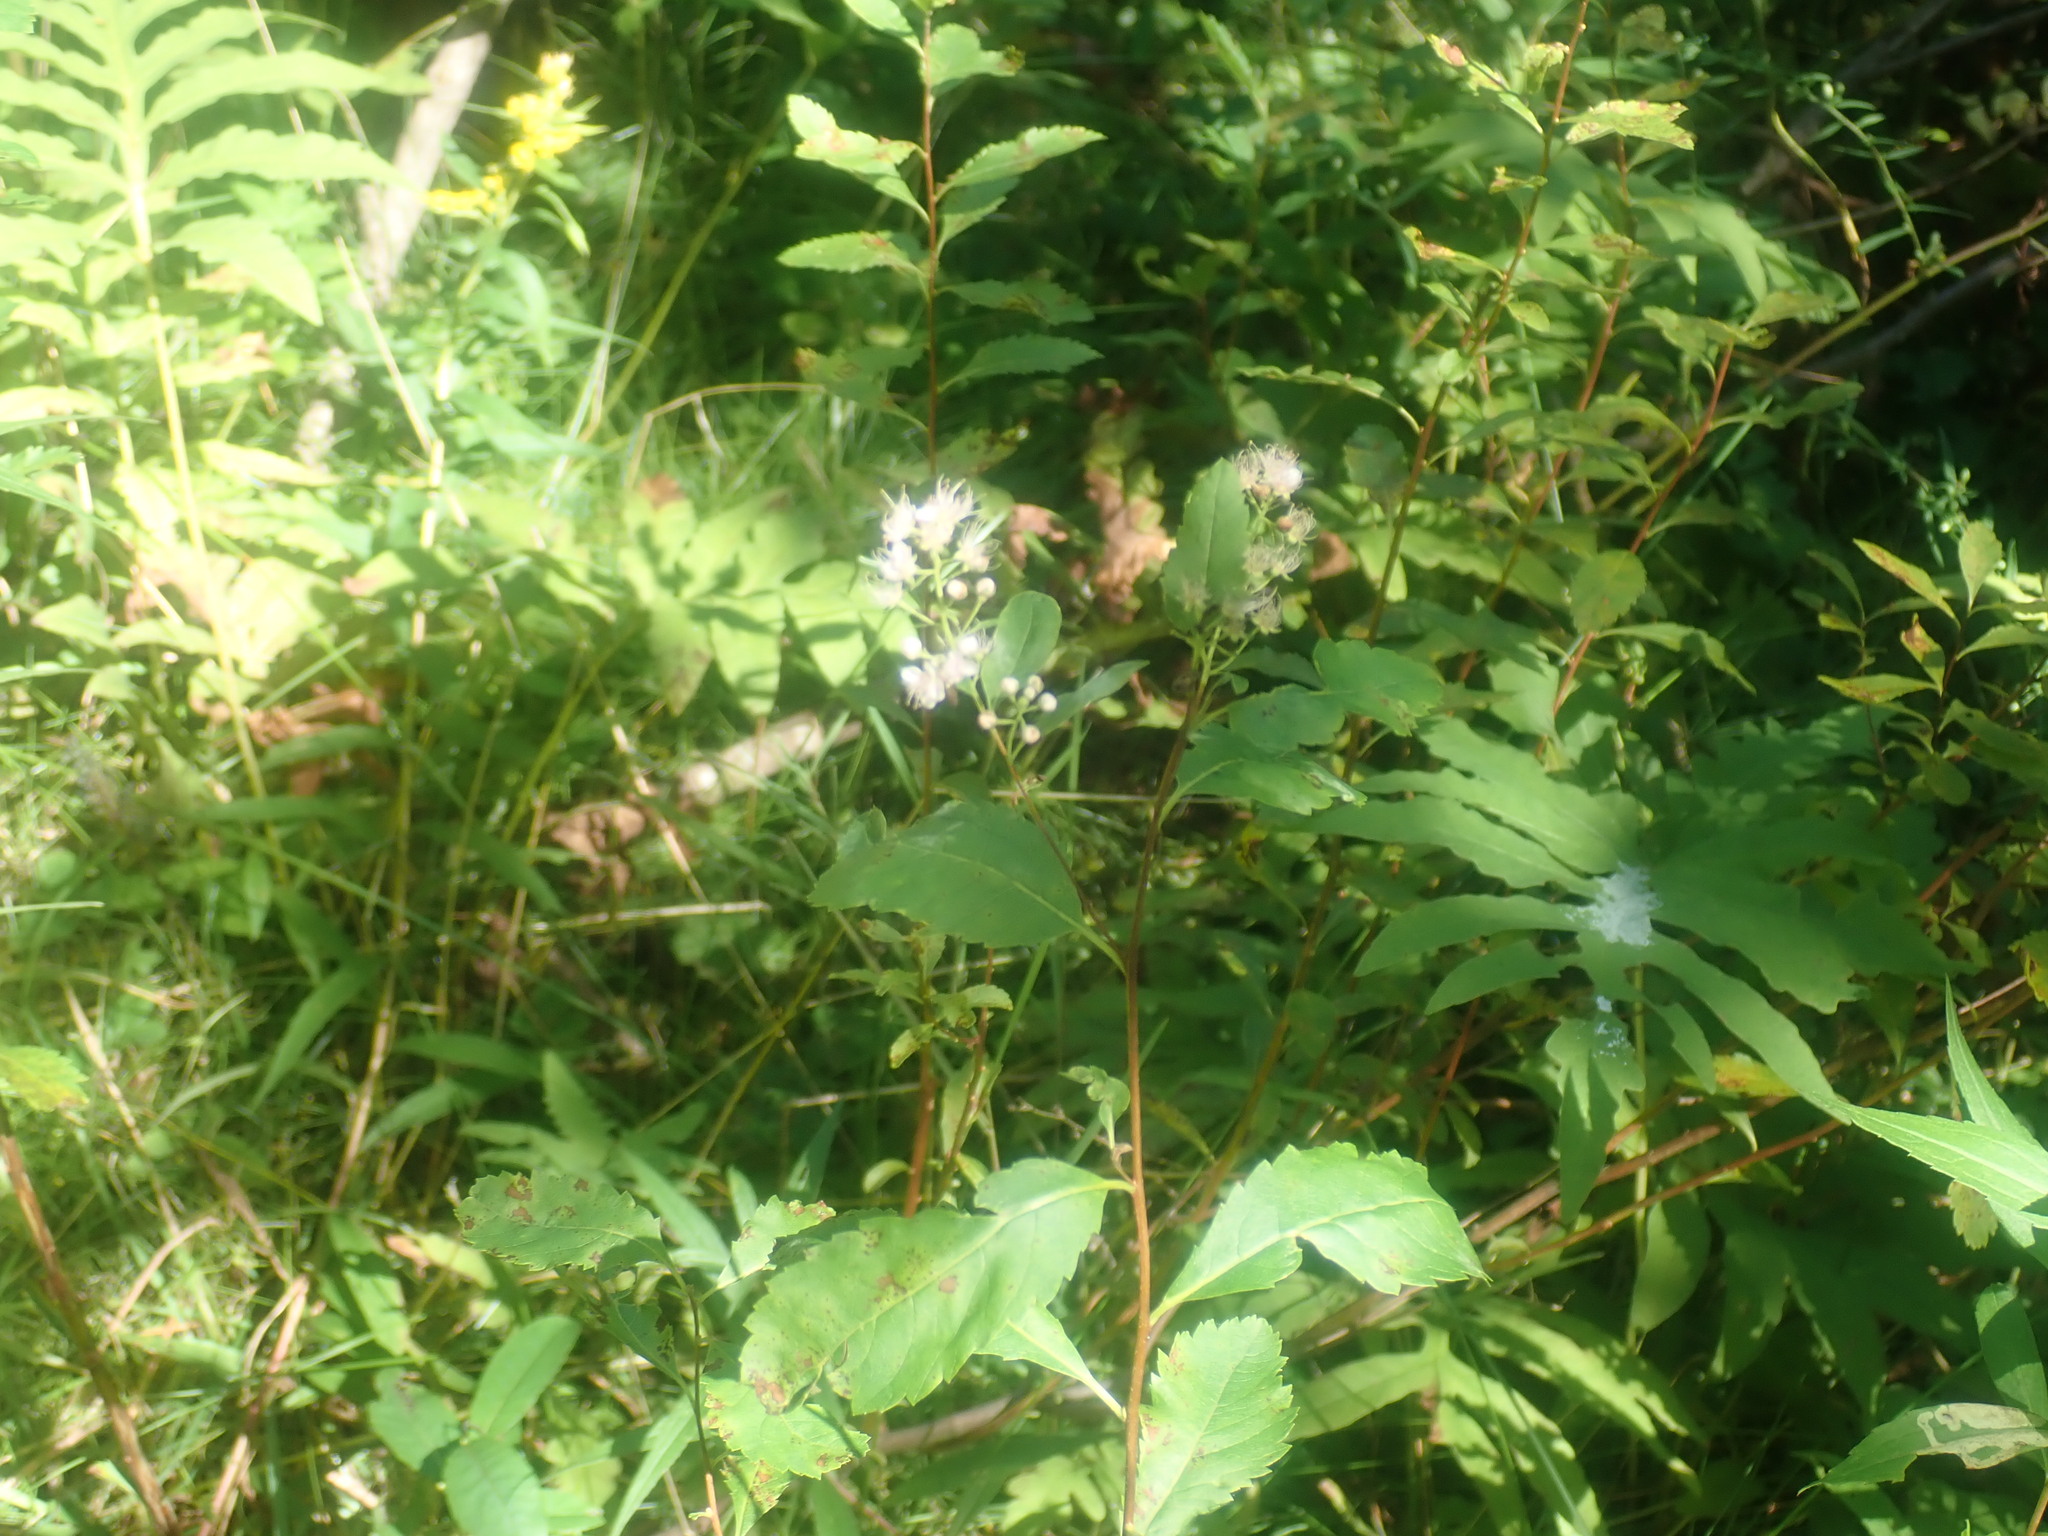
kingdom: Plantae
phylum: Tracheophyta
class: Magnoliopsida
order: Rosales
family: Rosaceae
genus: Spiraea
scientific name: Spiraea alba
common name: Pale bridewort
